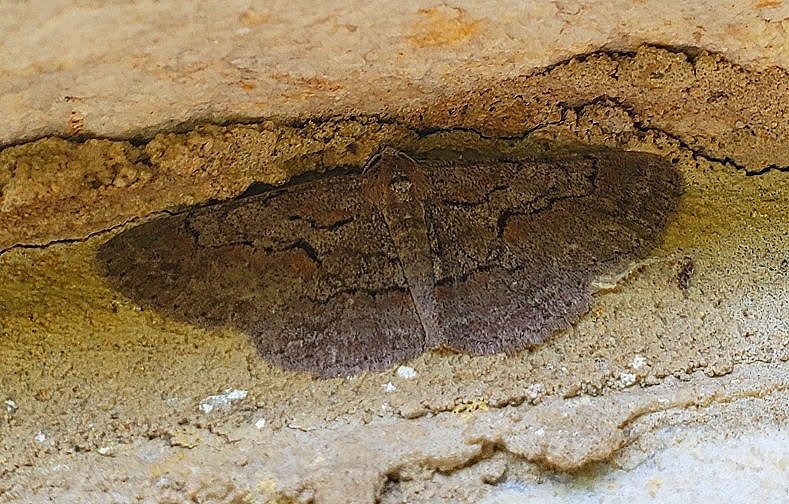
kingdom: Animalia
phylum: Arthropoda
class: Insecta
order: Lepidoptera
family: Geometridae
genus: Iridopsis
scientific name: Iridopsis vellivolata
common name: Large purplish gray
